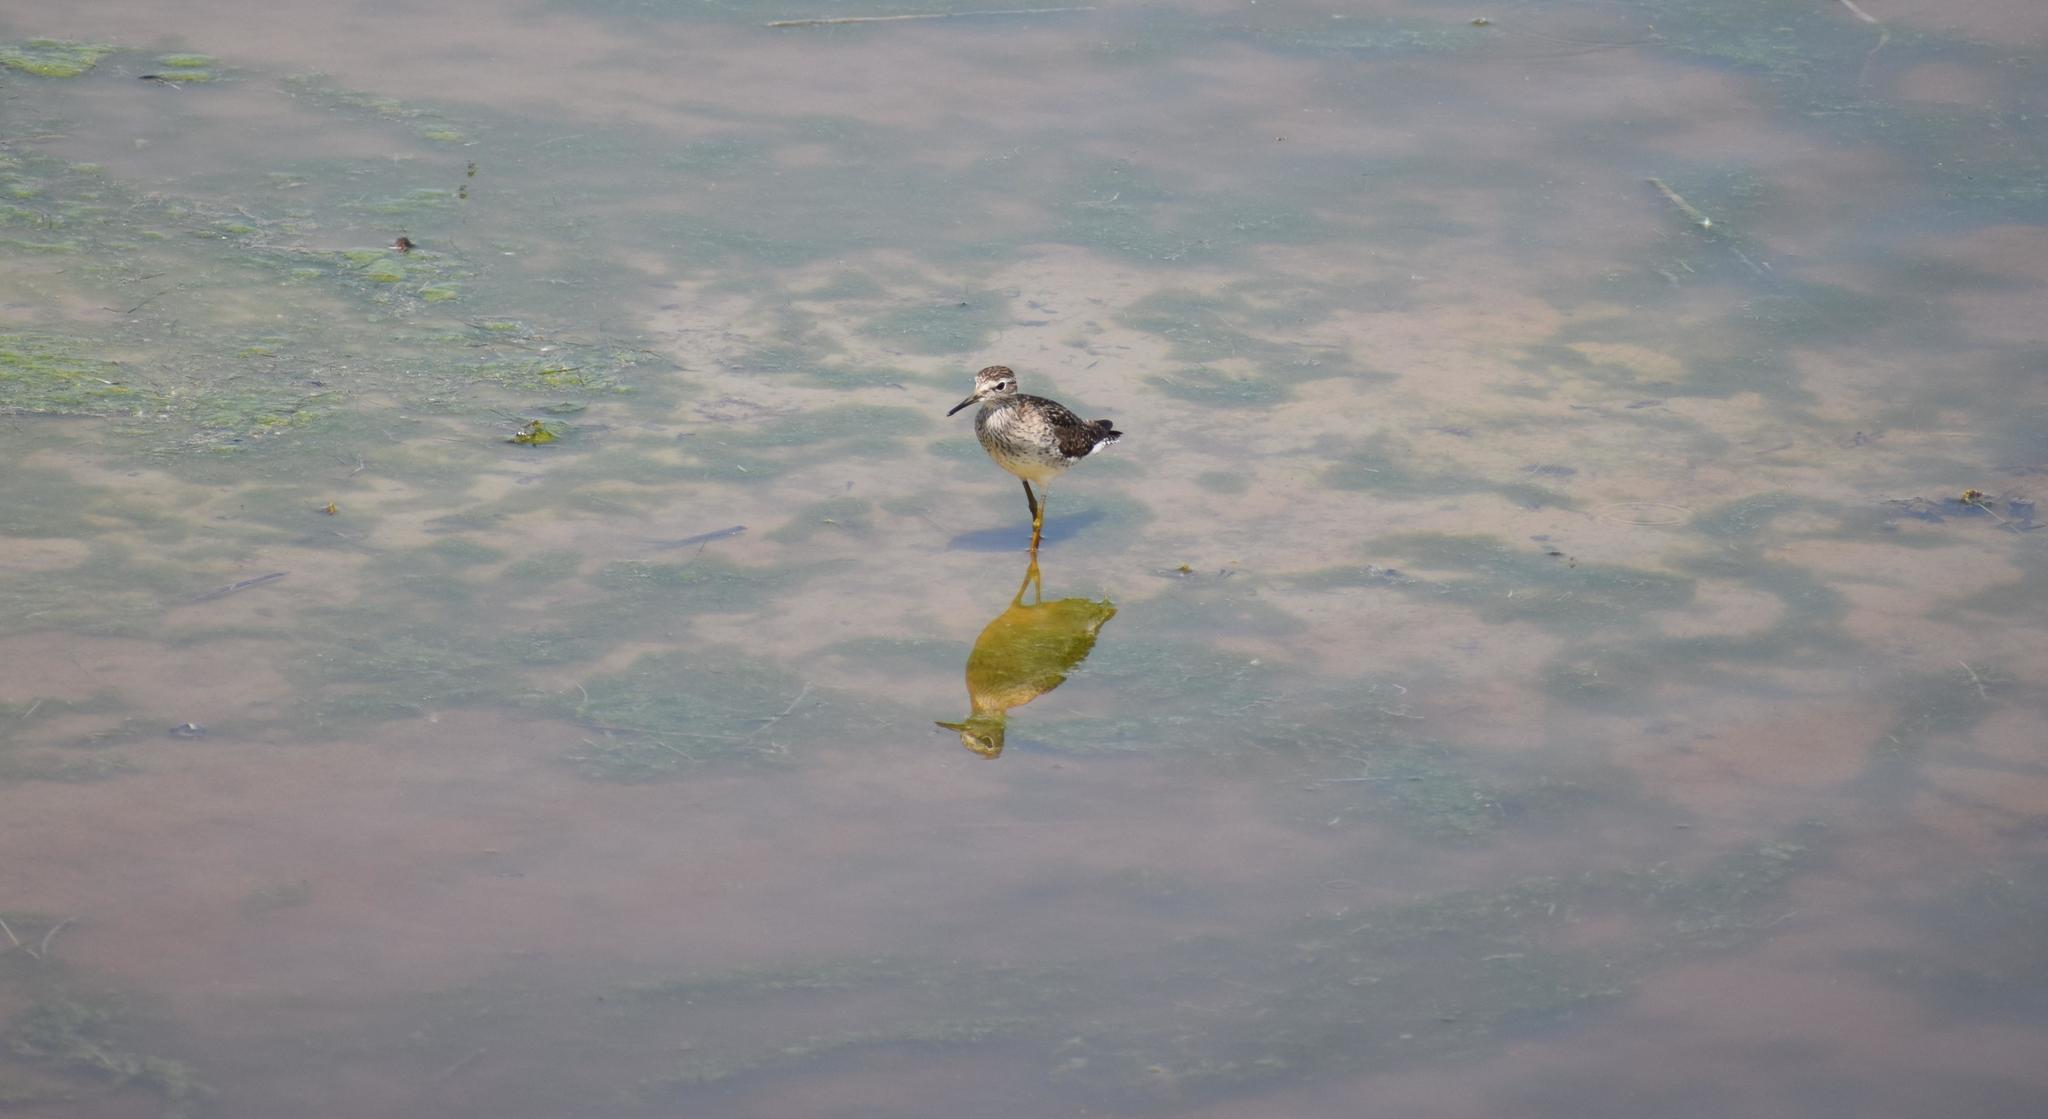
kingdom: Animalia
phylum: Chordata
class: Aves
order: Charadriiformes
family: Scolopacidae
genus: Tringa
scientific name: Tringa glareola
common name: Wood sandpiper
